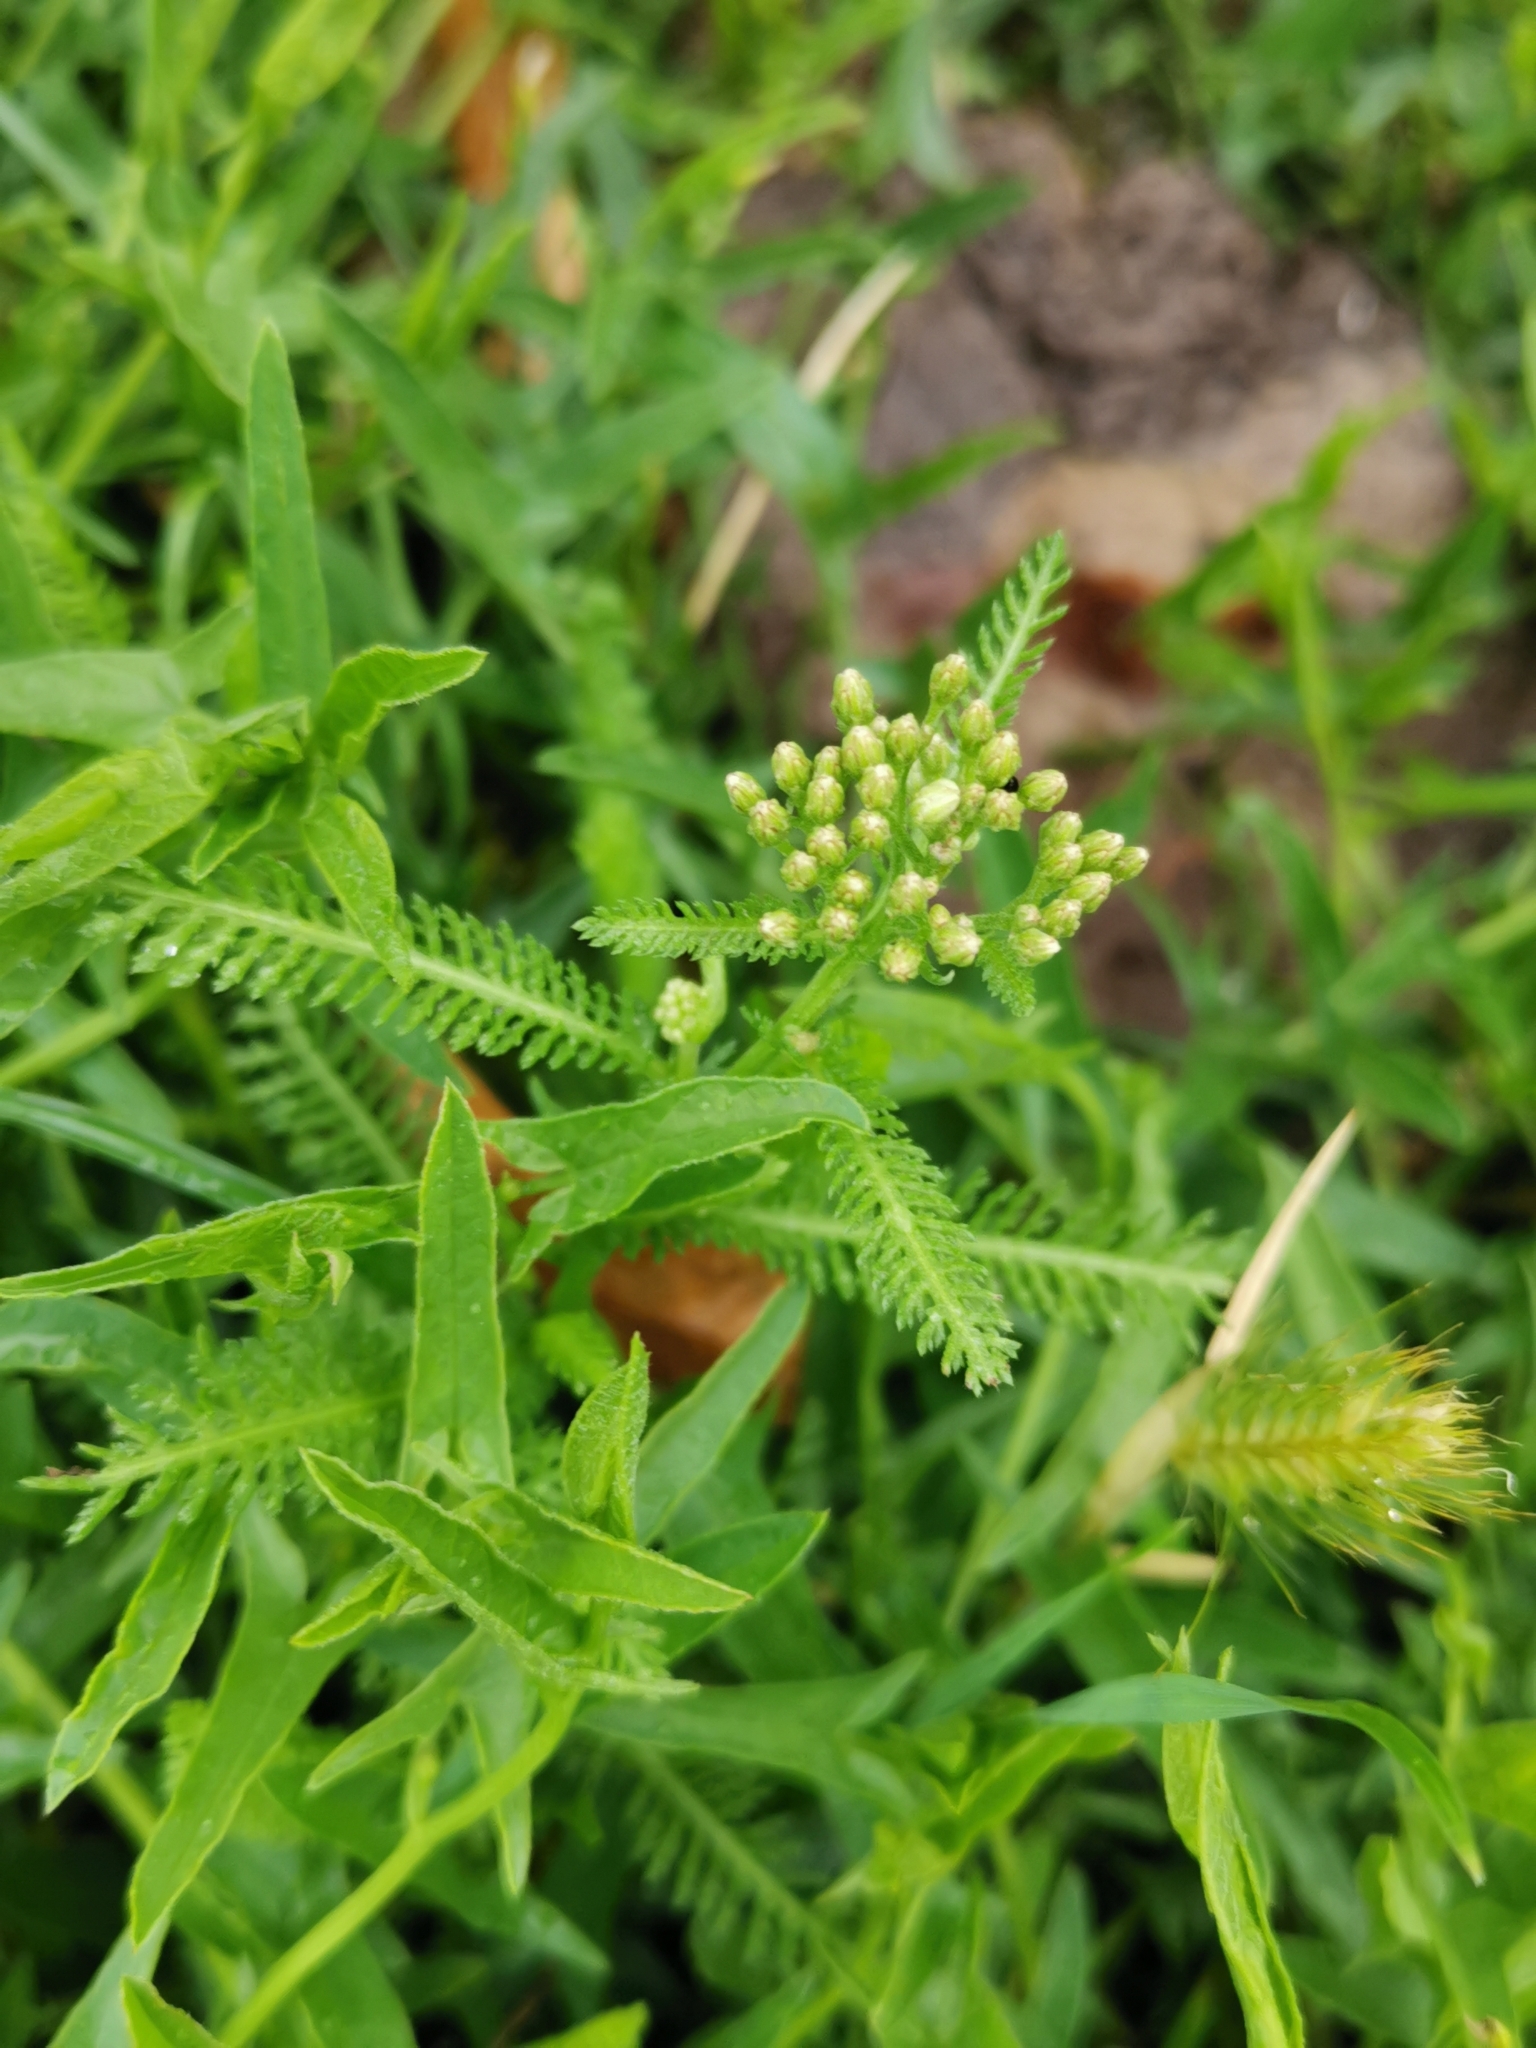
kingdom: Plantae
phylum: Tracheophyta
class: Magnoliopsida
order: Asterales
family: Asteraceae
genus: Achillea
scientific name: Achillea millefolium
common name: Yarrow
